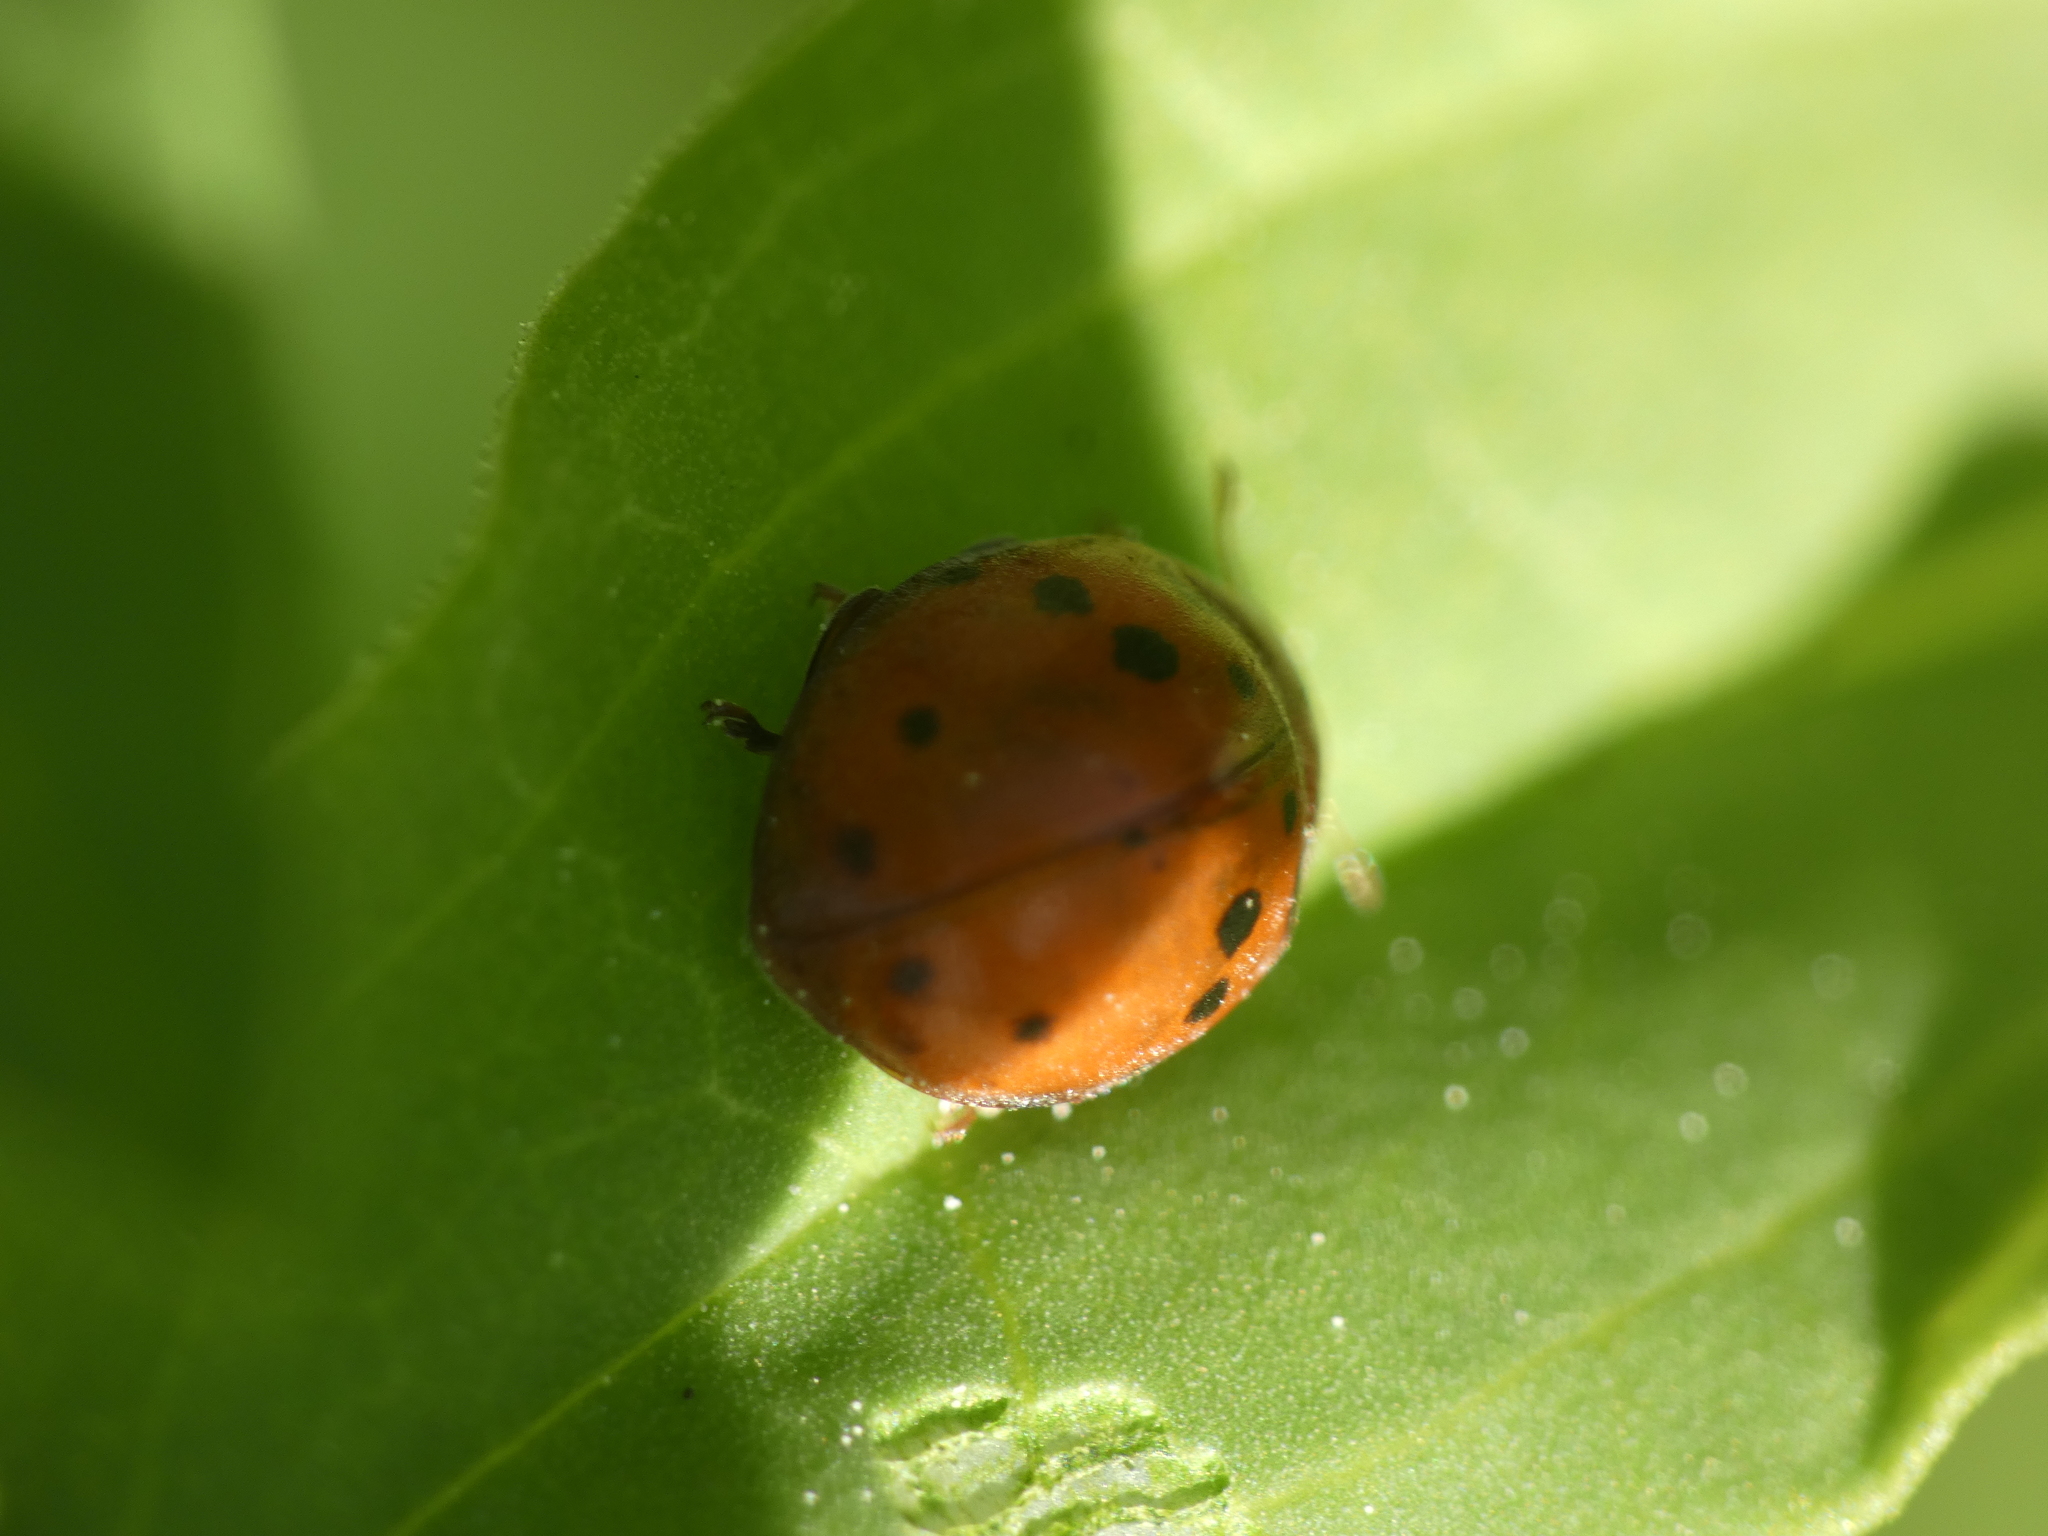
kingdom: Animalia
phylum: Arthropoda
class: Insecta
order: Coleoptera
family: Coccinellidae
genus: Subcoccinella
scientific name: Subcoccinella vigintiquatuorpunctata
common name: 24-spot ladybird
